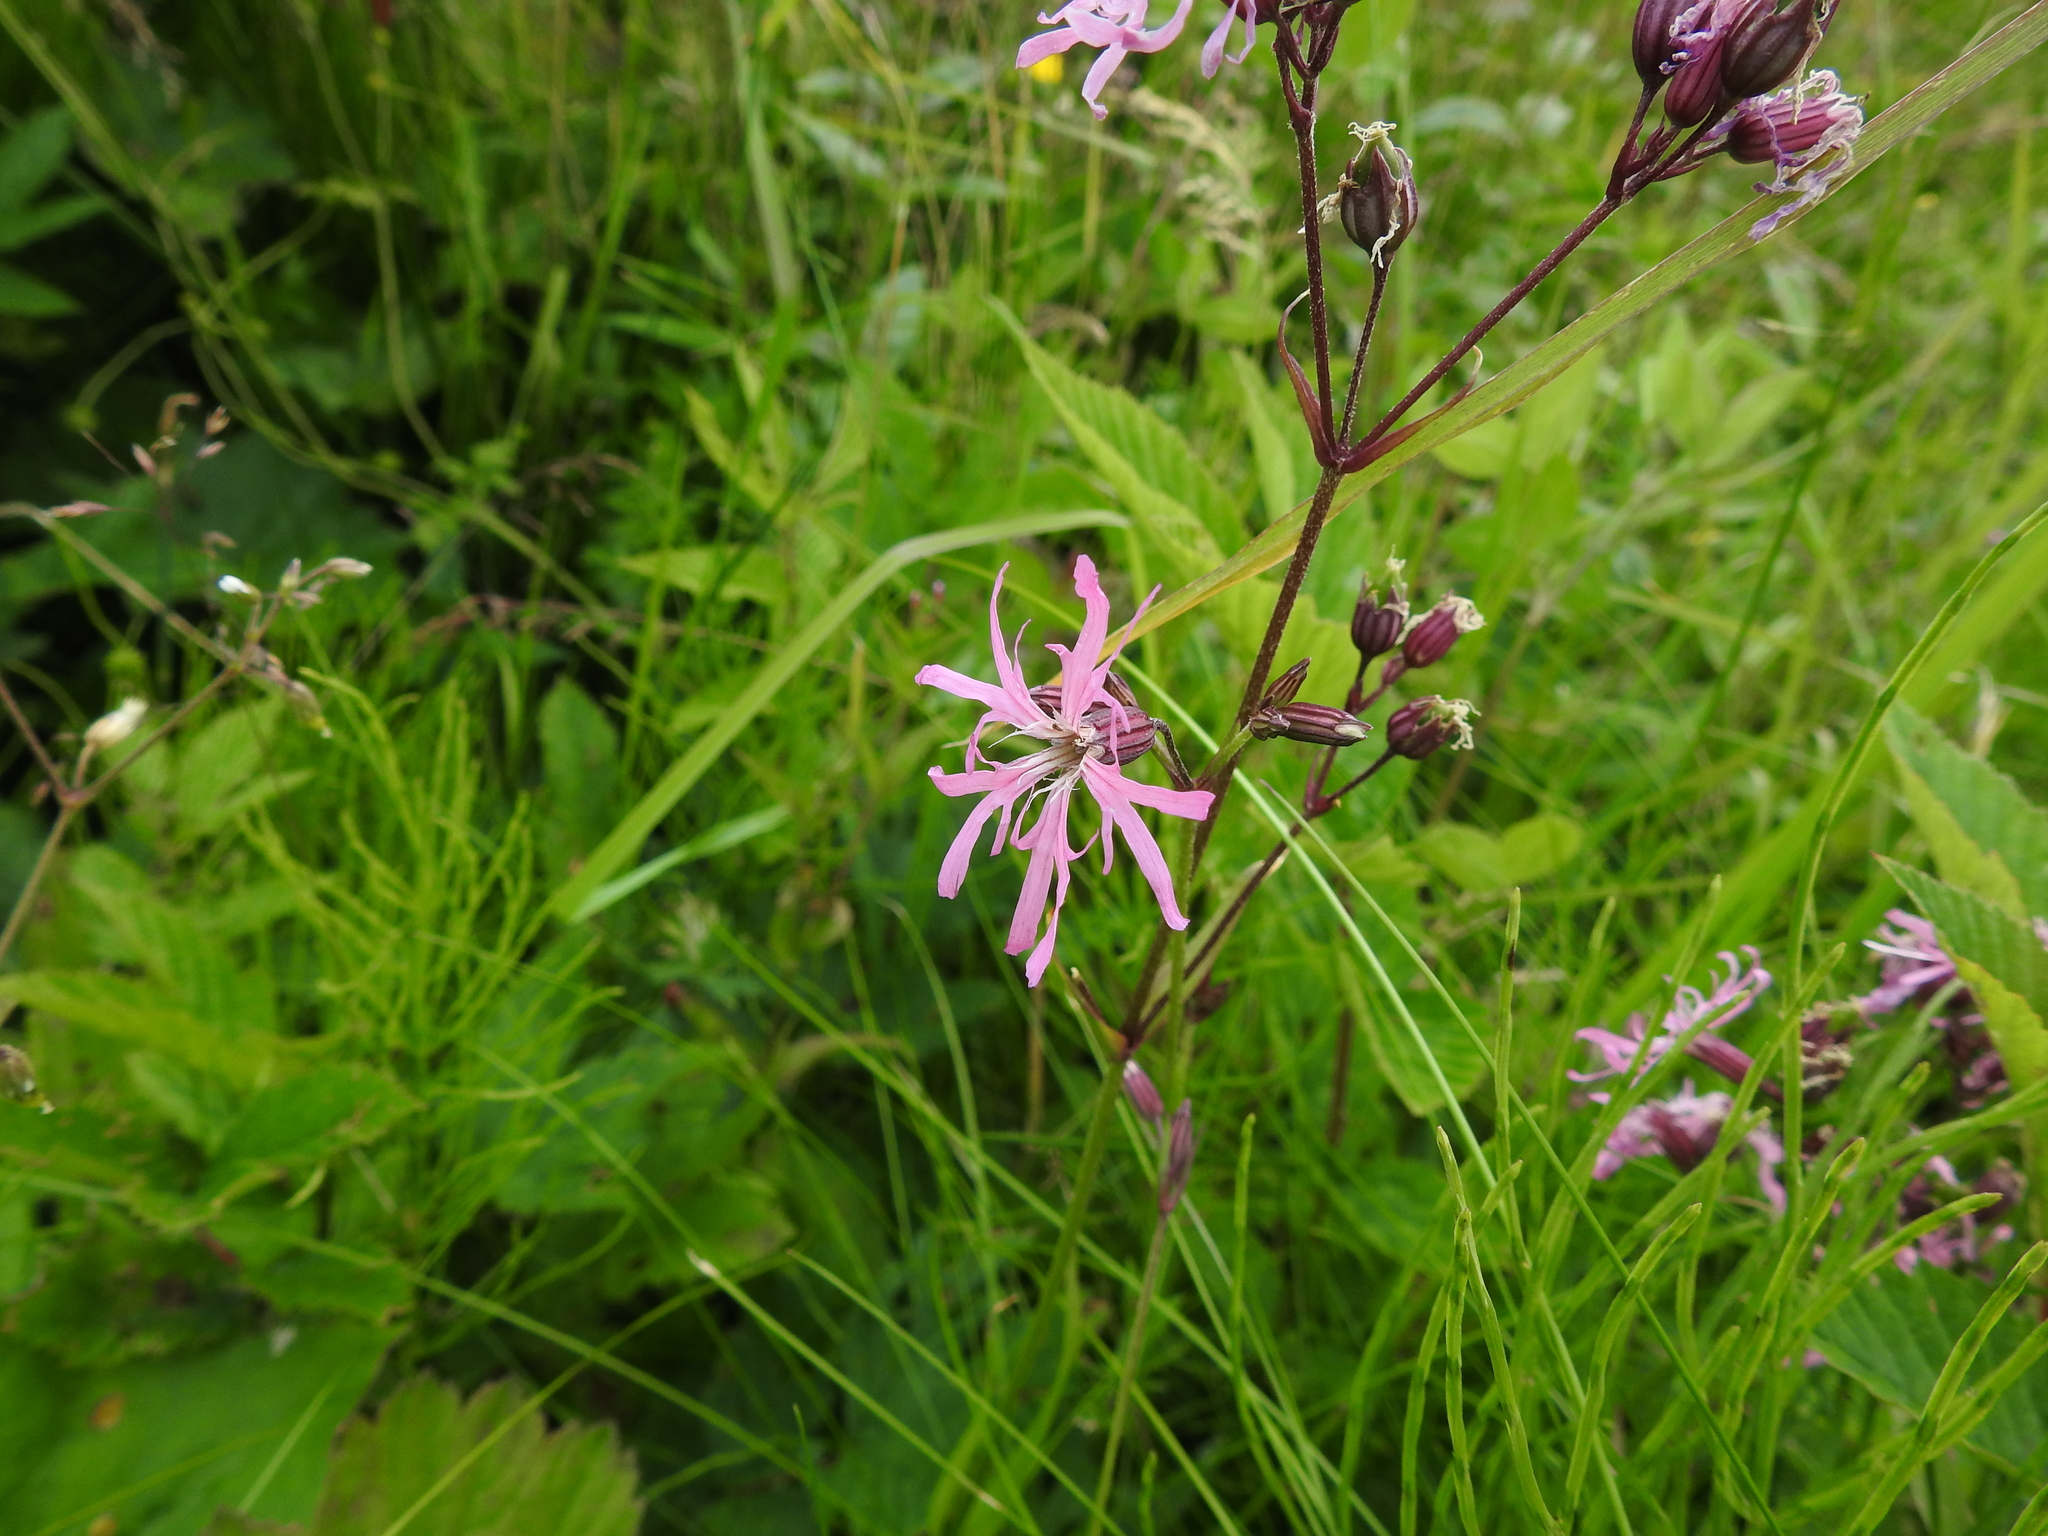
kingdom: Plantae
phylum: Tracheophyta
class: Magnoliopsida
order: Caryophyllales
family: Caryophyllaceae
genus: Silene
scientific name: Silene flos-cuculi
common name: Ragged-robin
